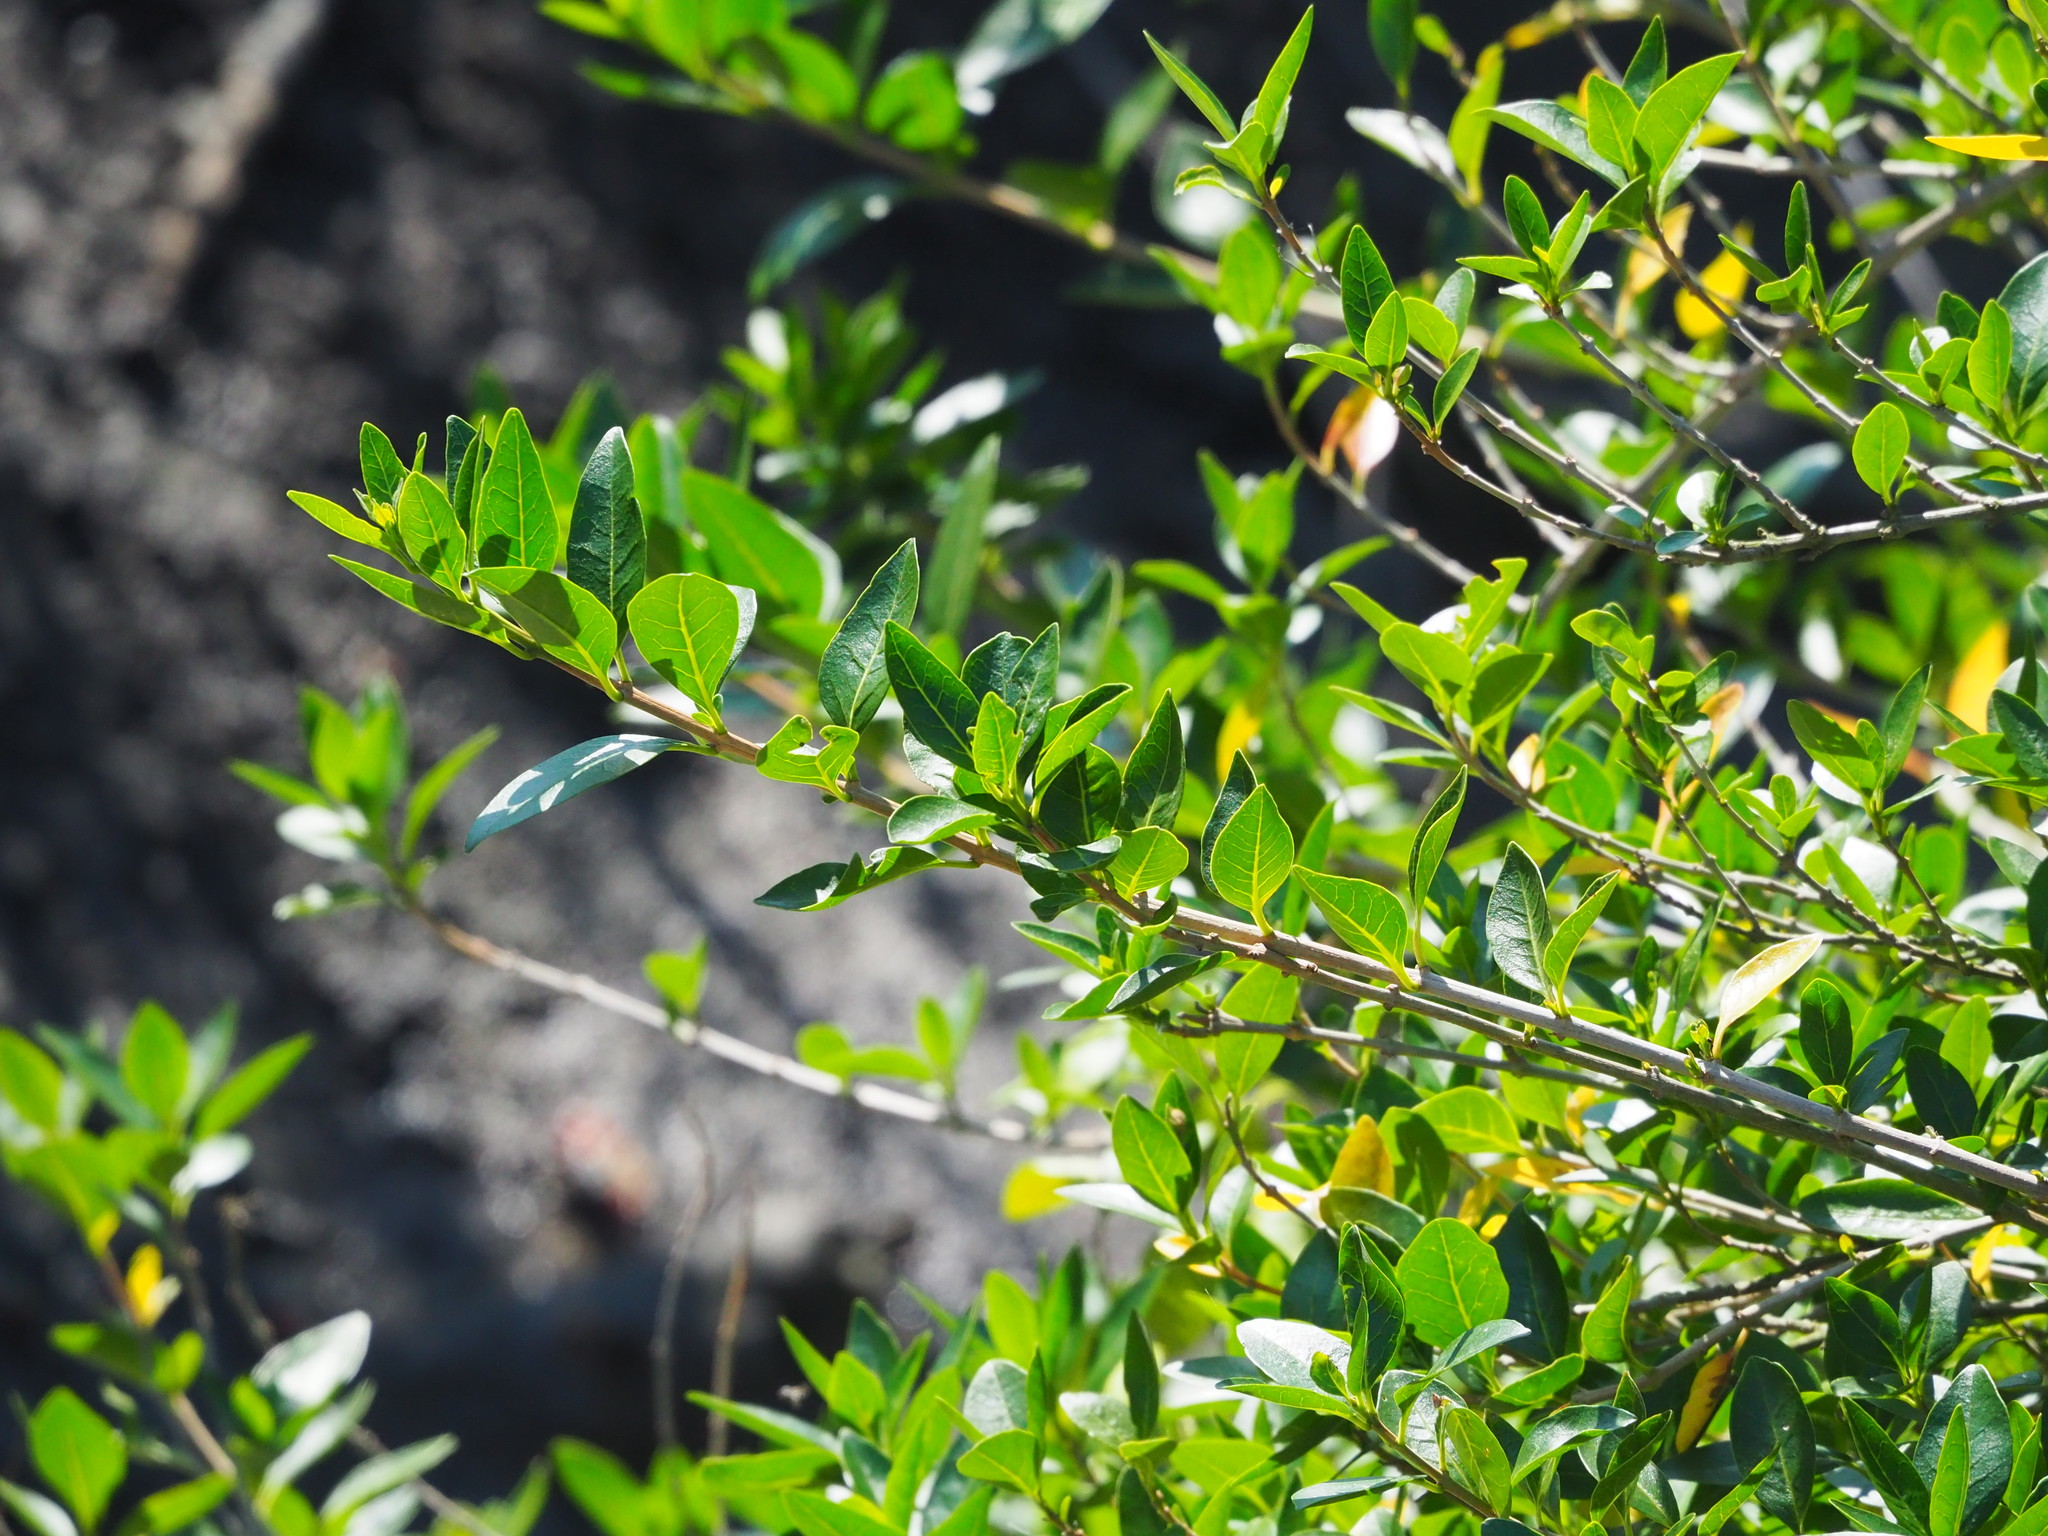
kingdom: Plantae
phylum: Tracheophyta
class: Magnoliopsida
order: Lamiales
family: Lamiaceae
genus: Volkameria
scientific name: Volkameria inermis
